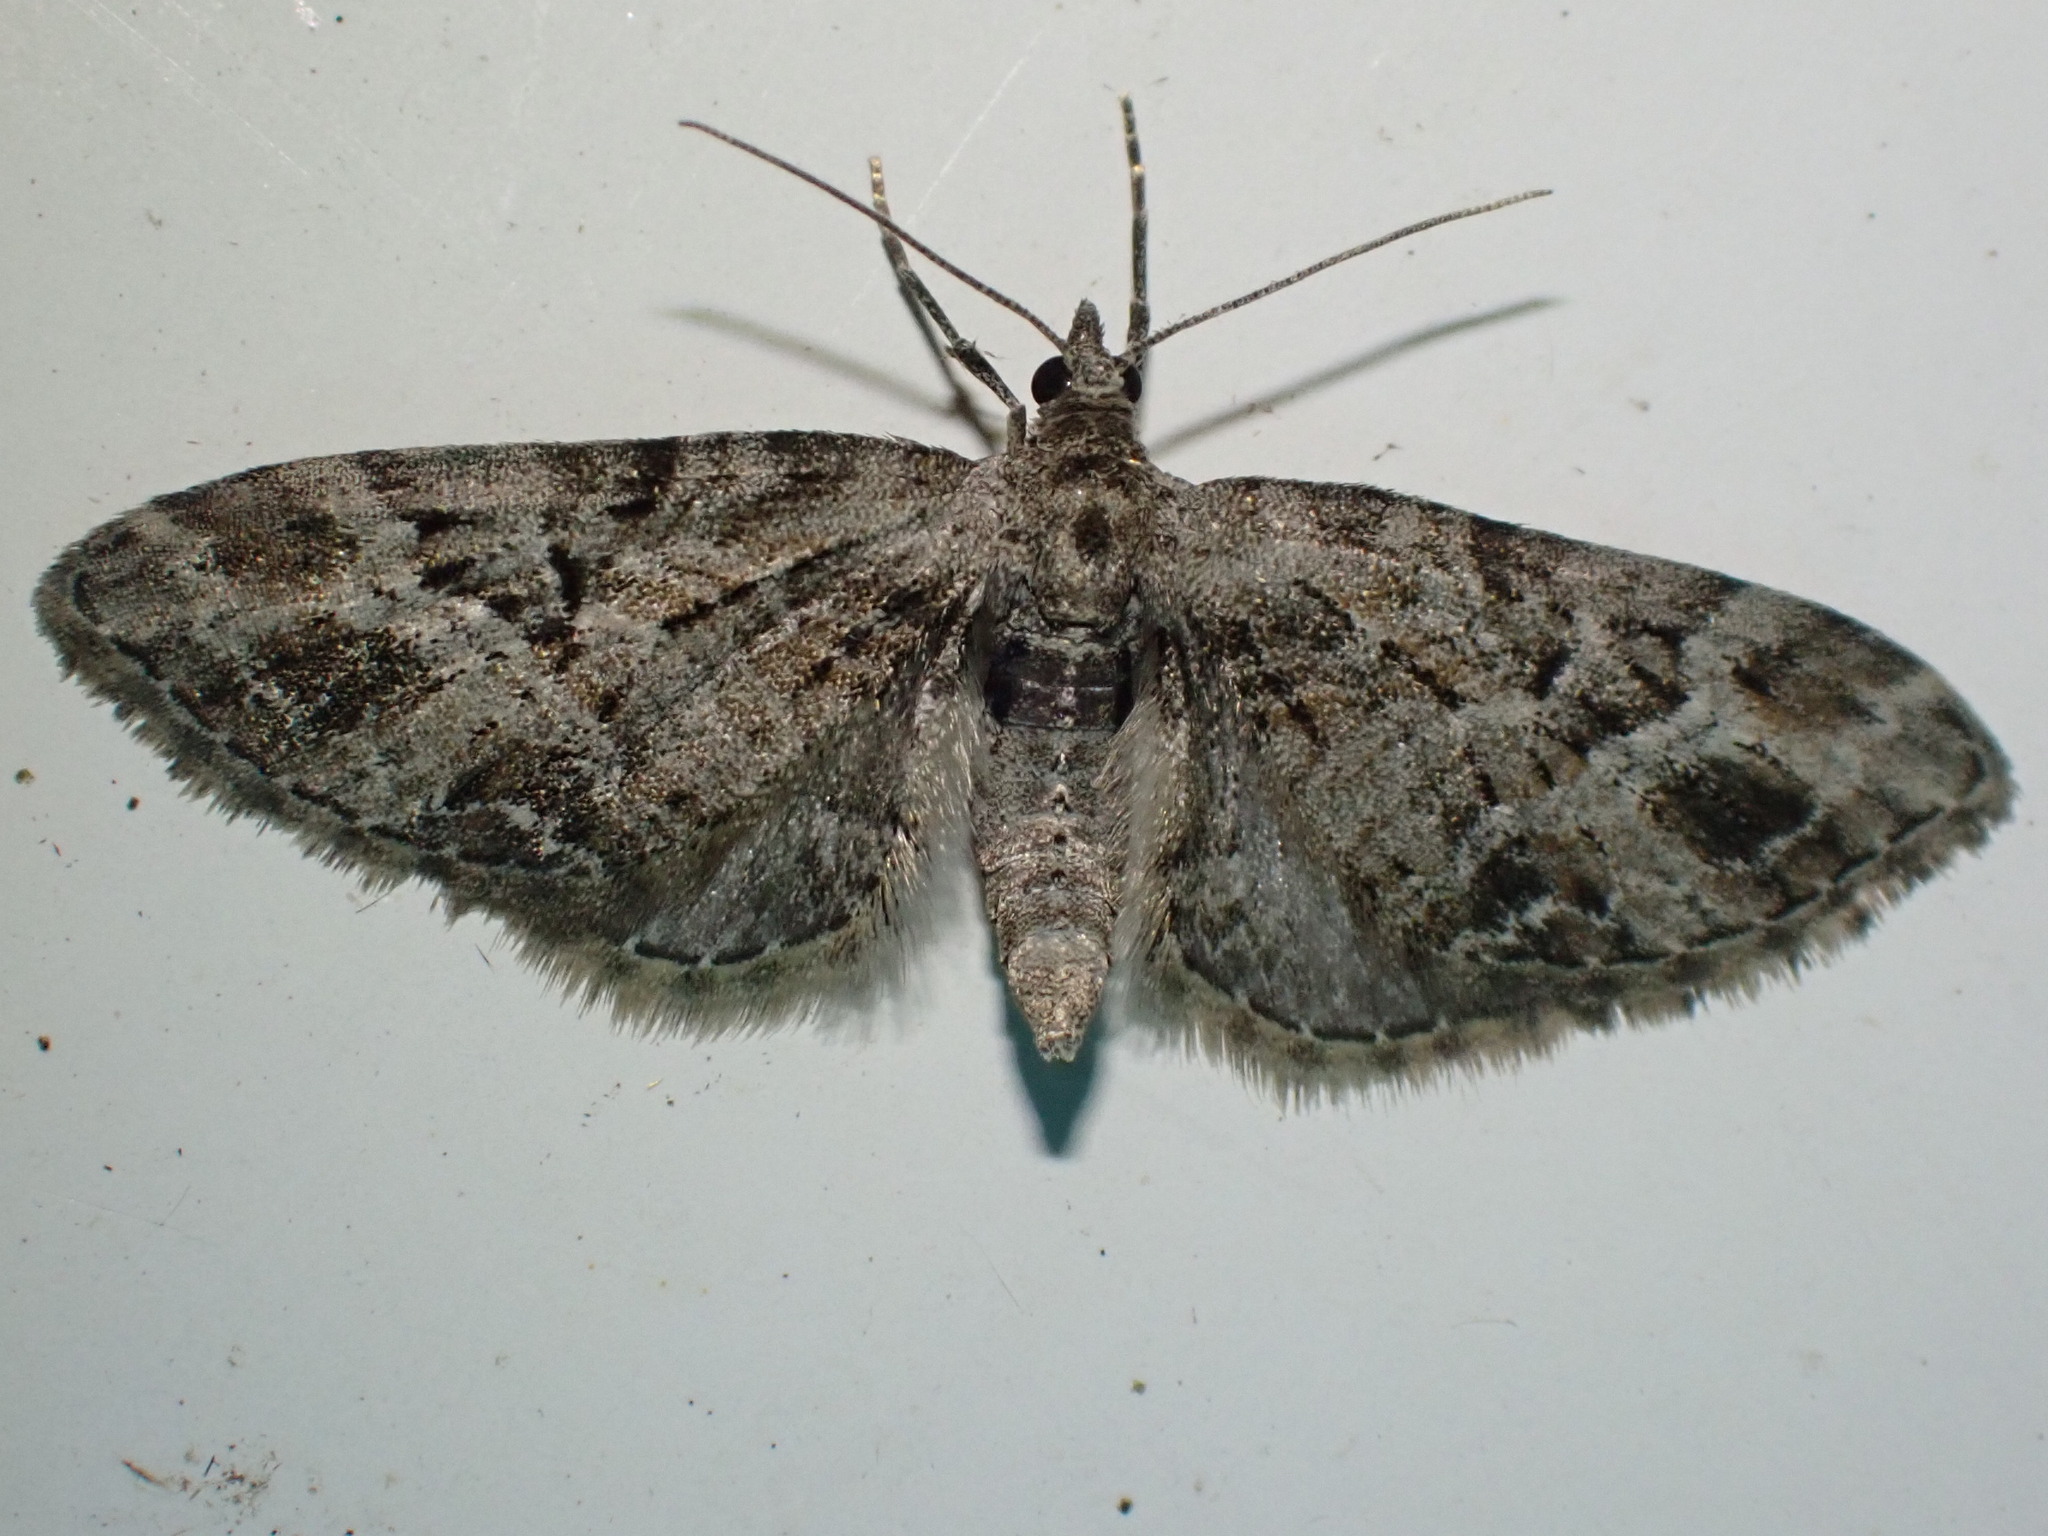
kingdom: Animalia
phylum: Arthropoda
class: Insecta
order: Lepidoptera
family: Geometridae
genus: Eupithecia
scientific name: Eupithecia exiguata
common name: Mottled pug
